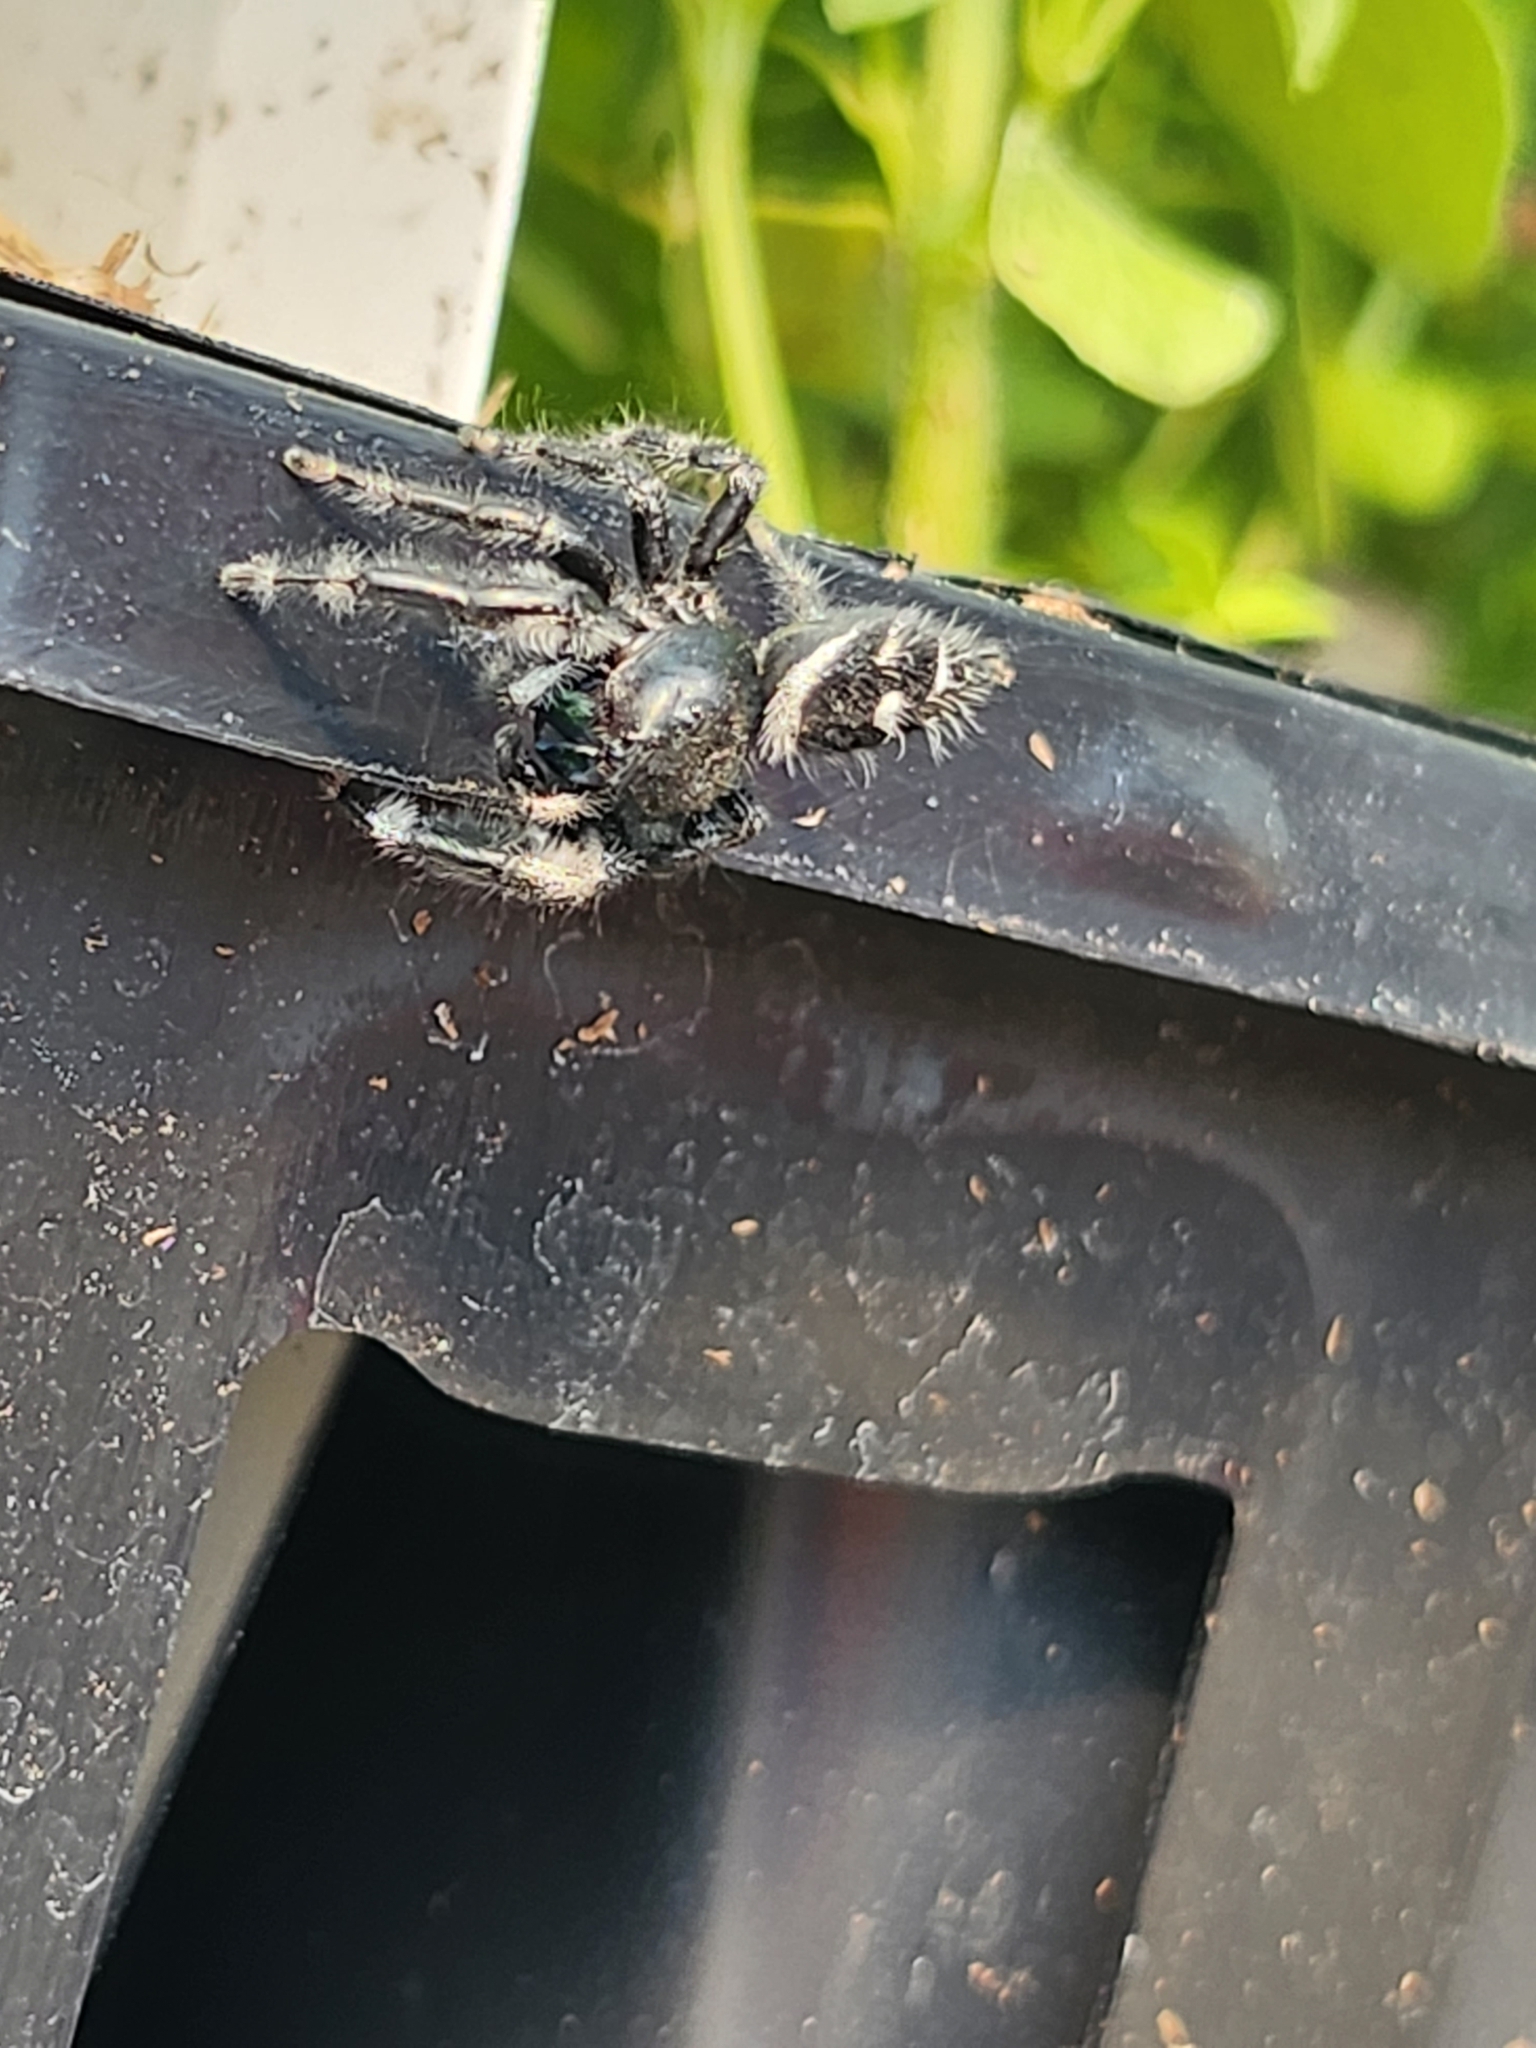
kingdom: Animalia
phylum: Arthropoda
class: Arachnida
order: Araneae
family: Salticidae
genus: Phidippus
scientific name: Phidippus audax
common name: Bold jumper
